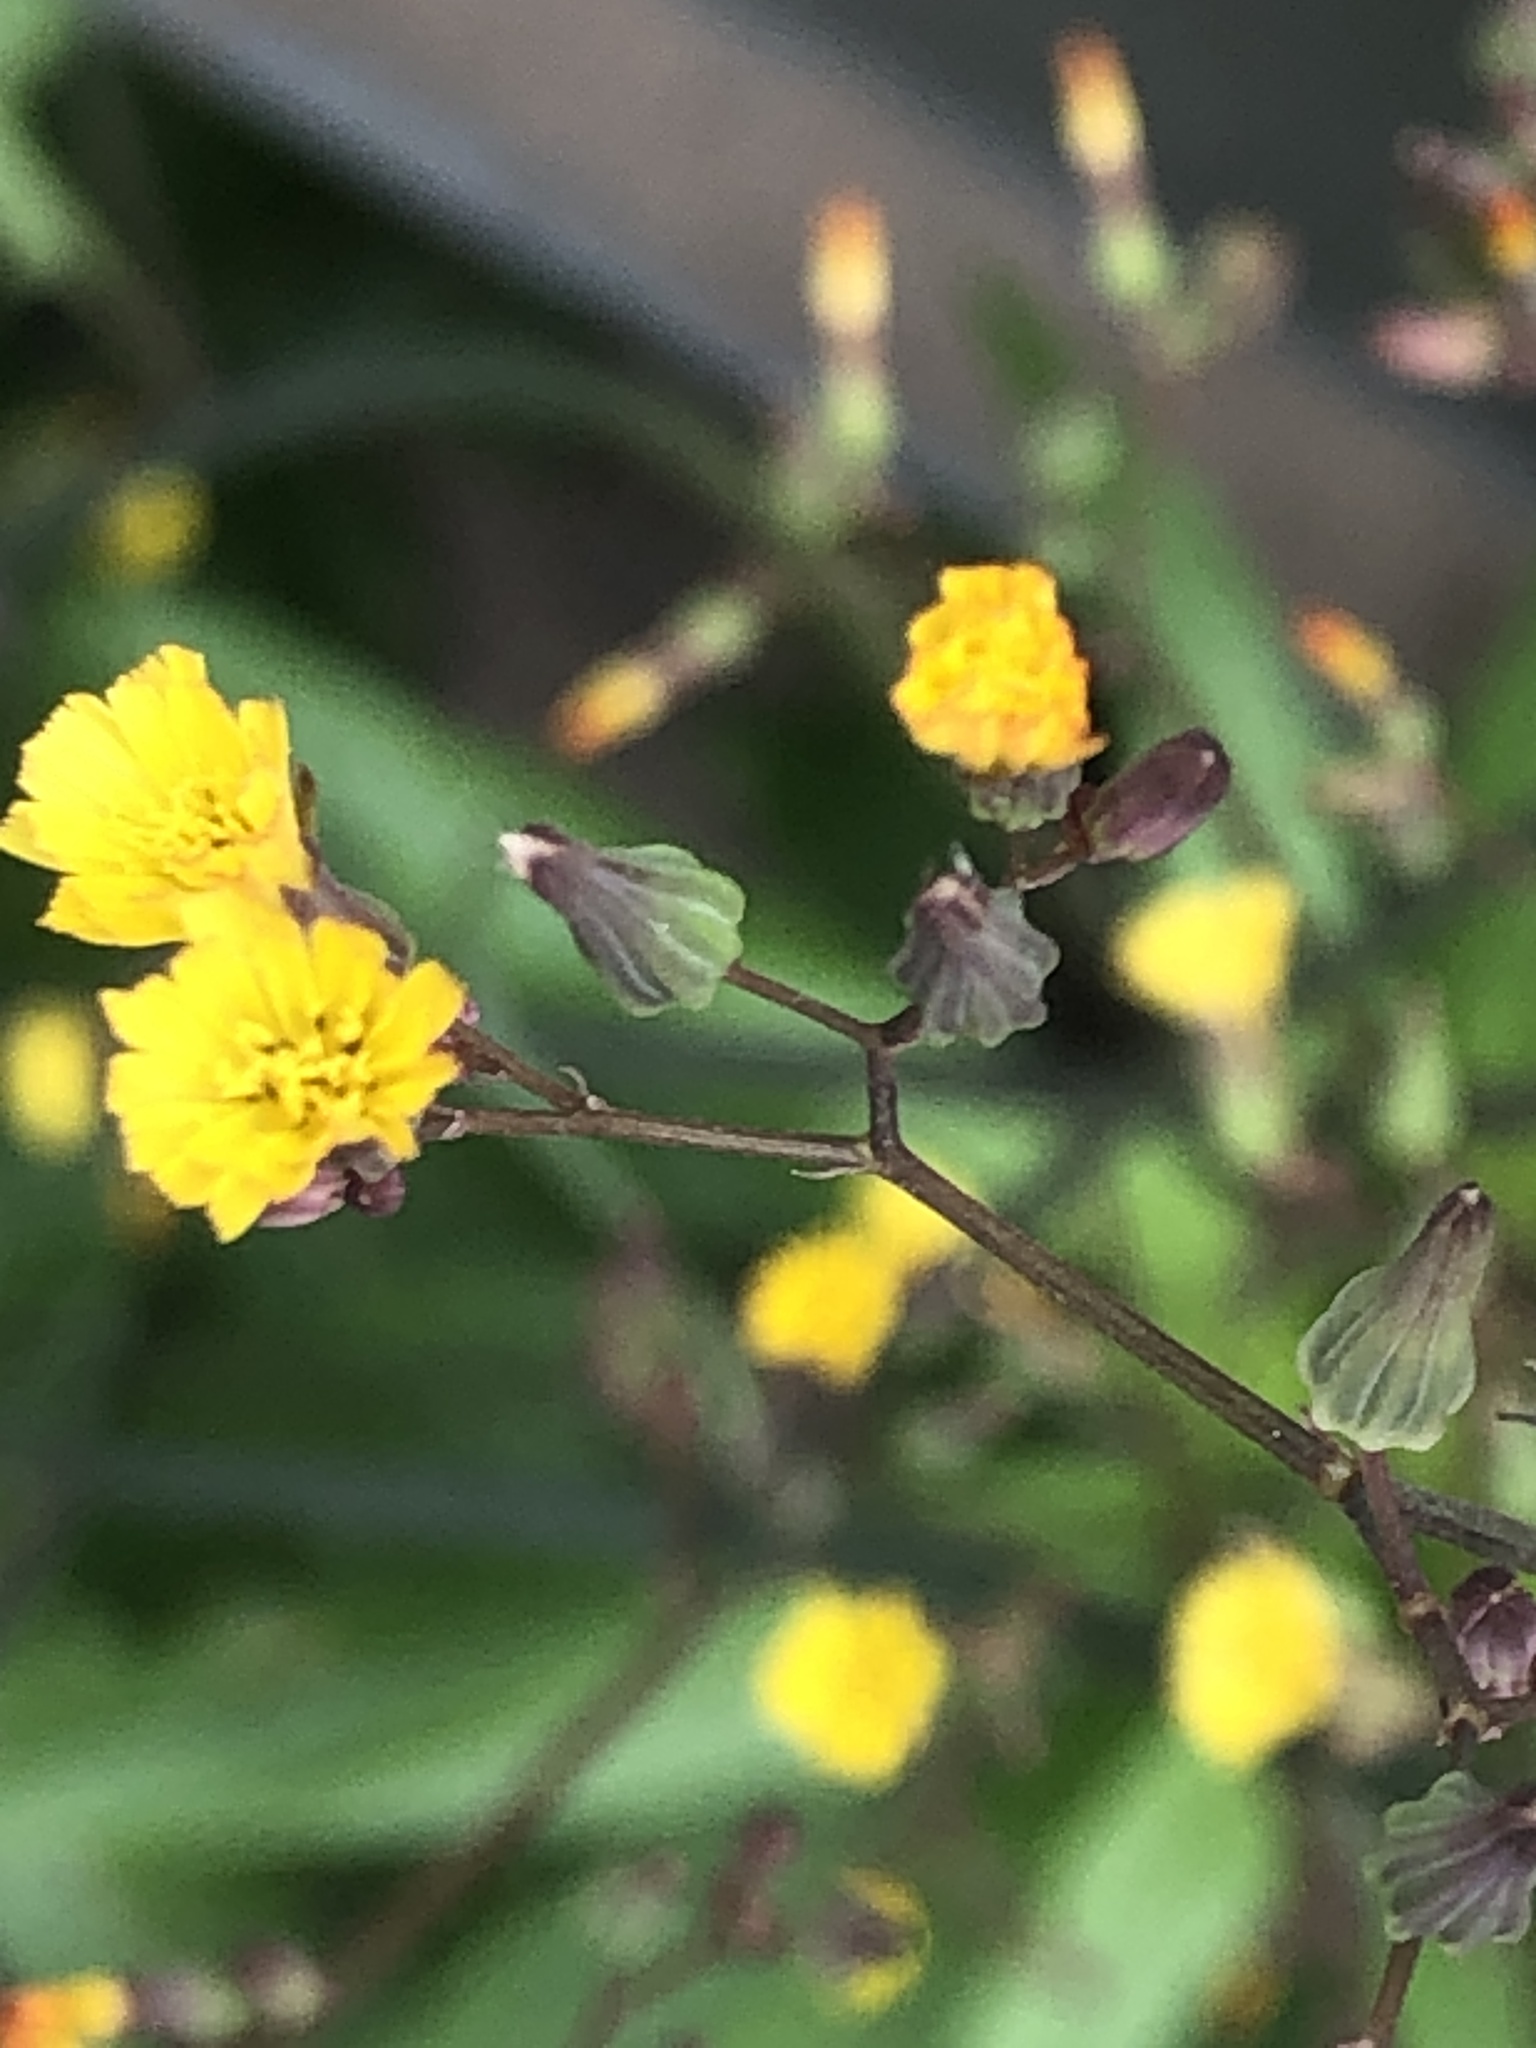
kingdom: Plantae
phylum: Tracheophyta
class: Magnoliopsida
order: Asterales
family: Asteraceae
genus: Youngia
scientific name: Youngia japonica
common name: Oriental false hawksbeard
